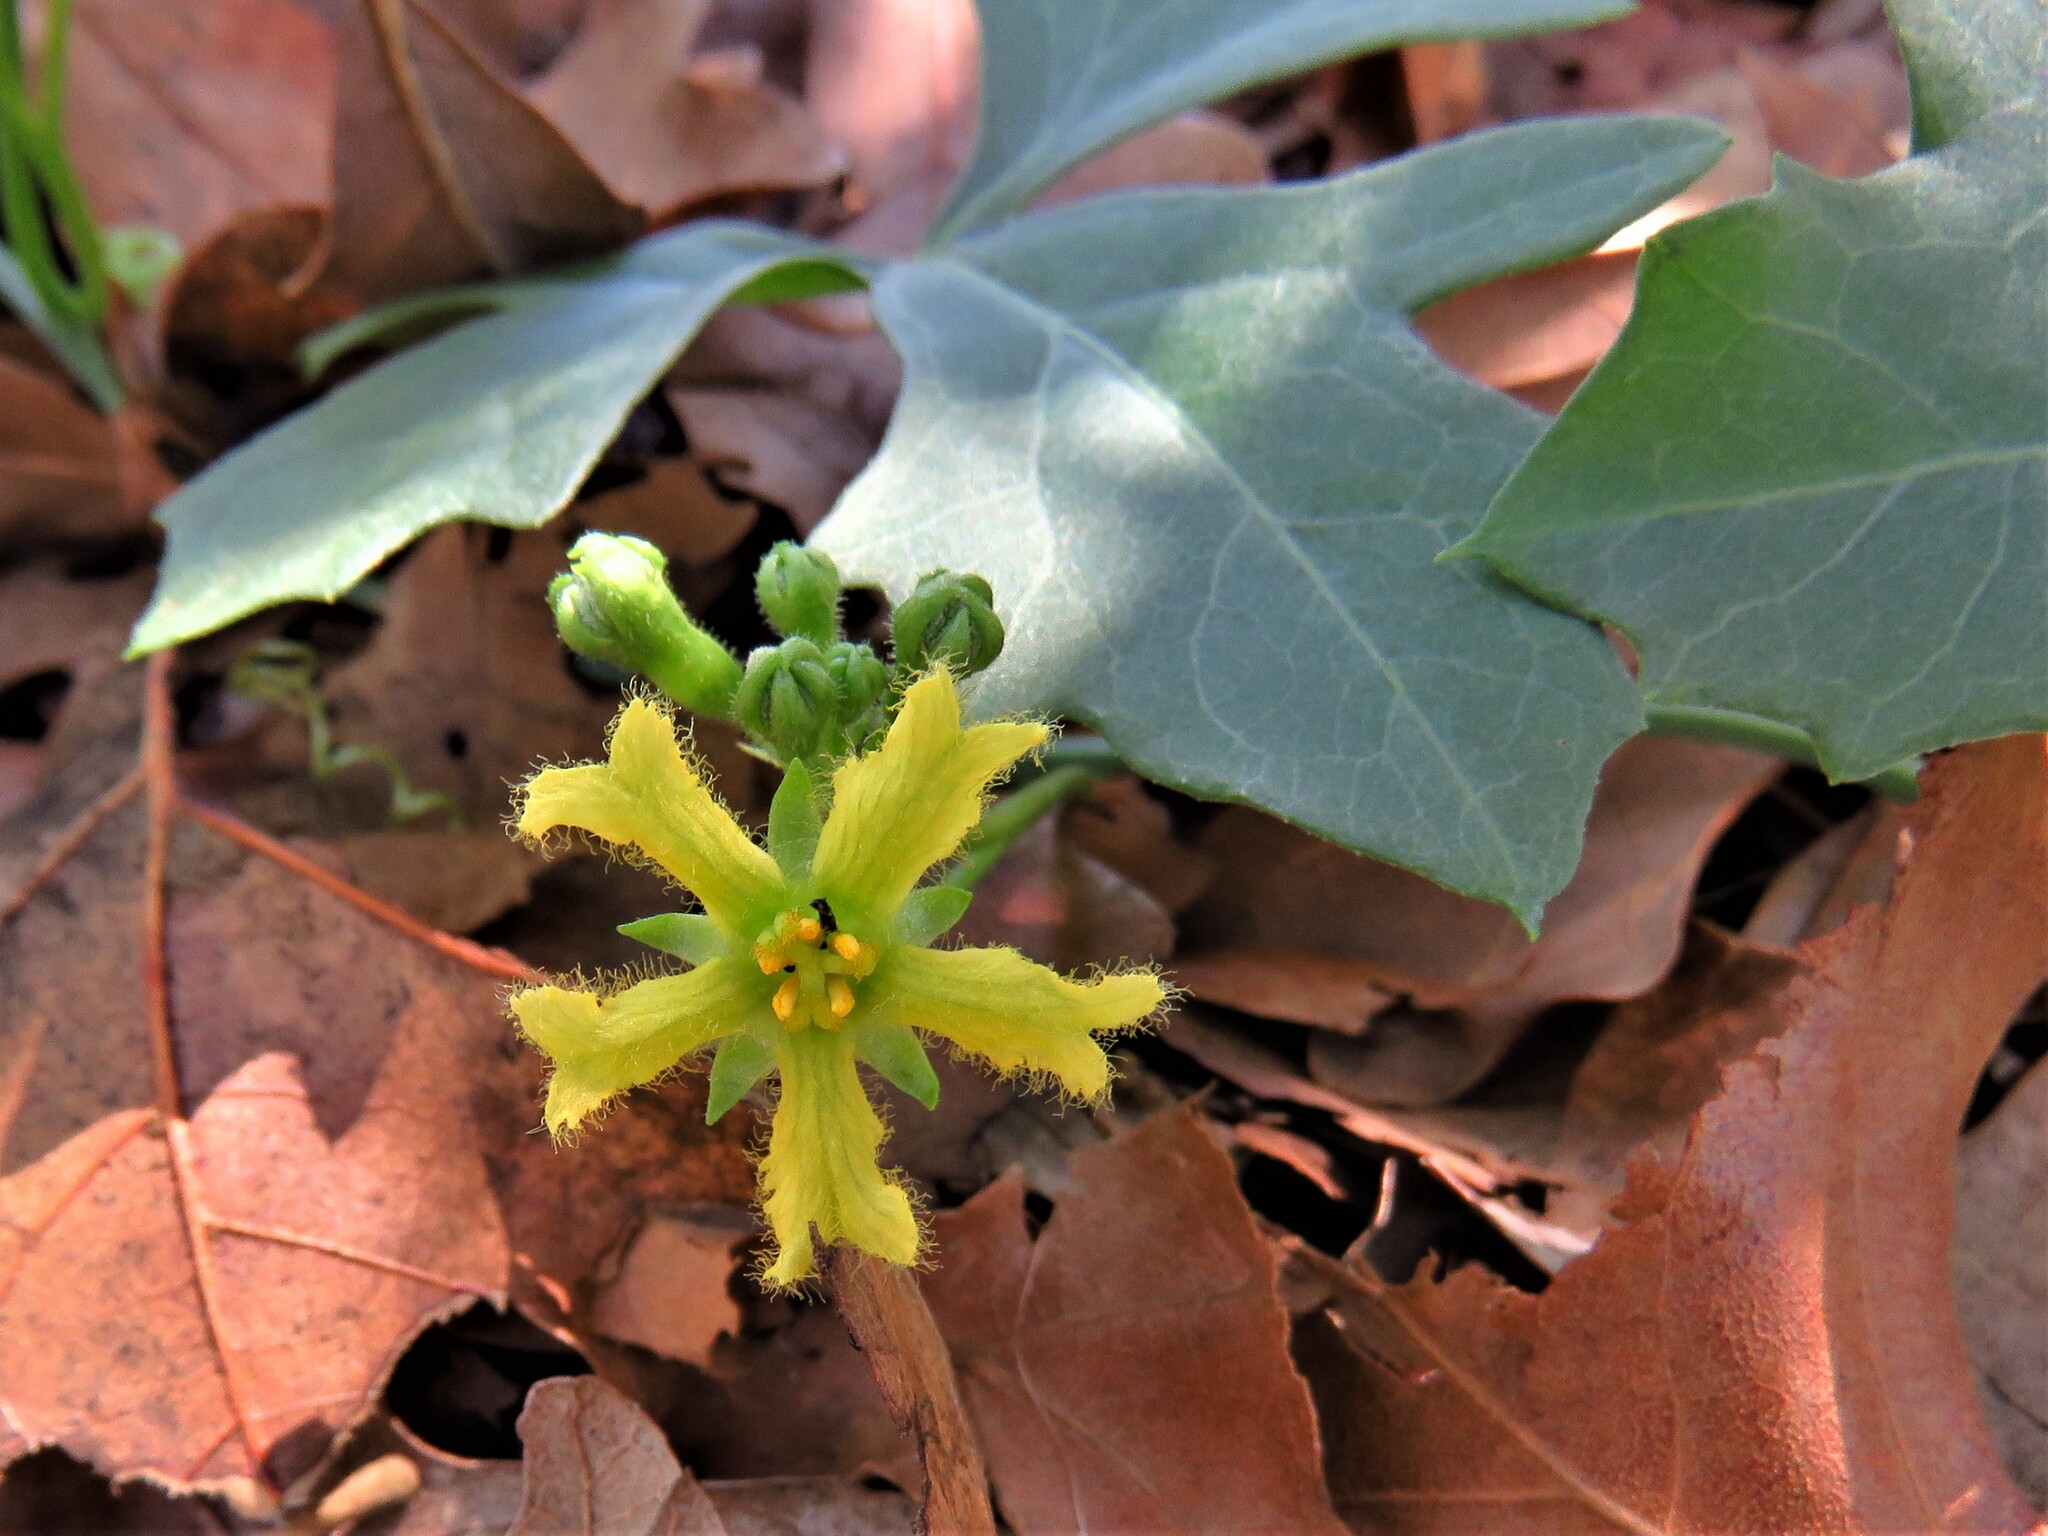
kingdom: Plantae
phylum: Tracheophyta
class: Magnoliopsida
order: Cucurbitales
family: Cucurbitaceae
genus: Ibervillea
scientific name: Ibervillea lindheimeri
